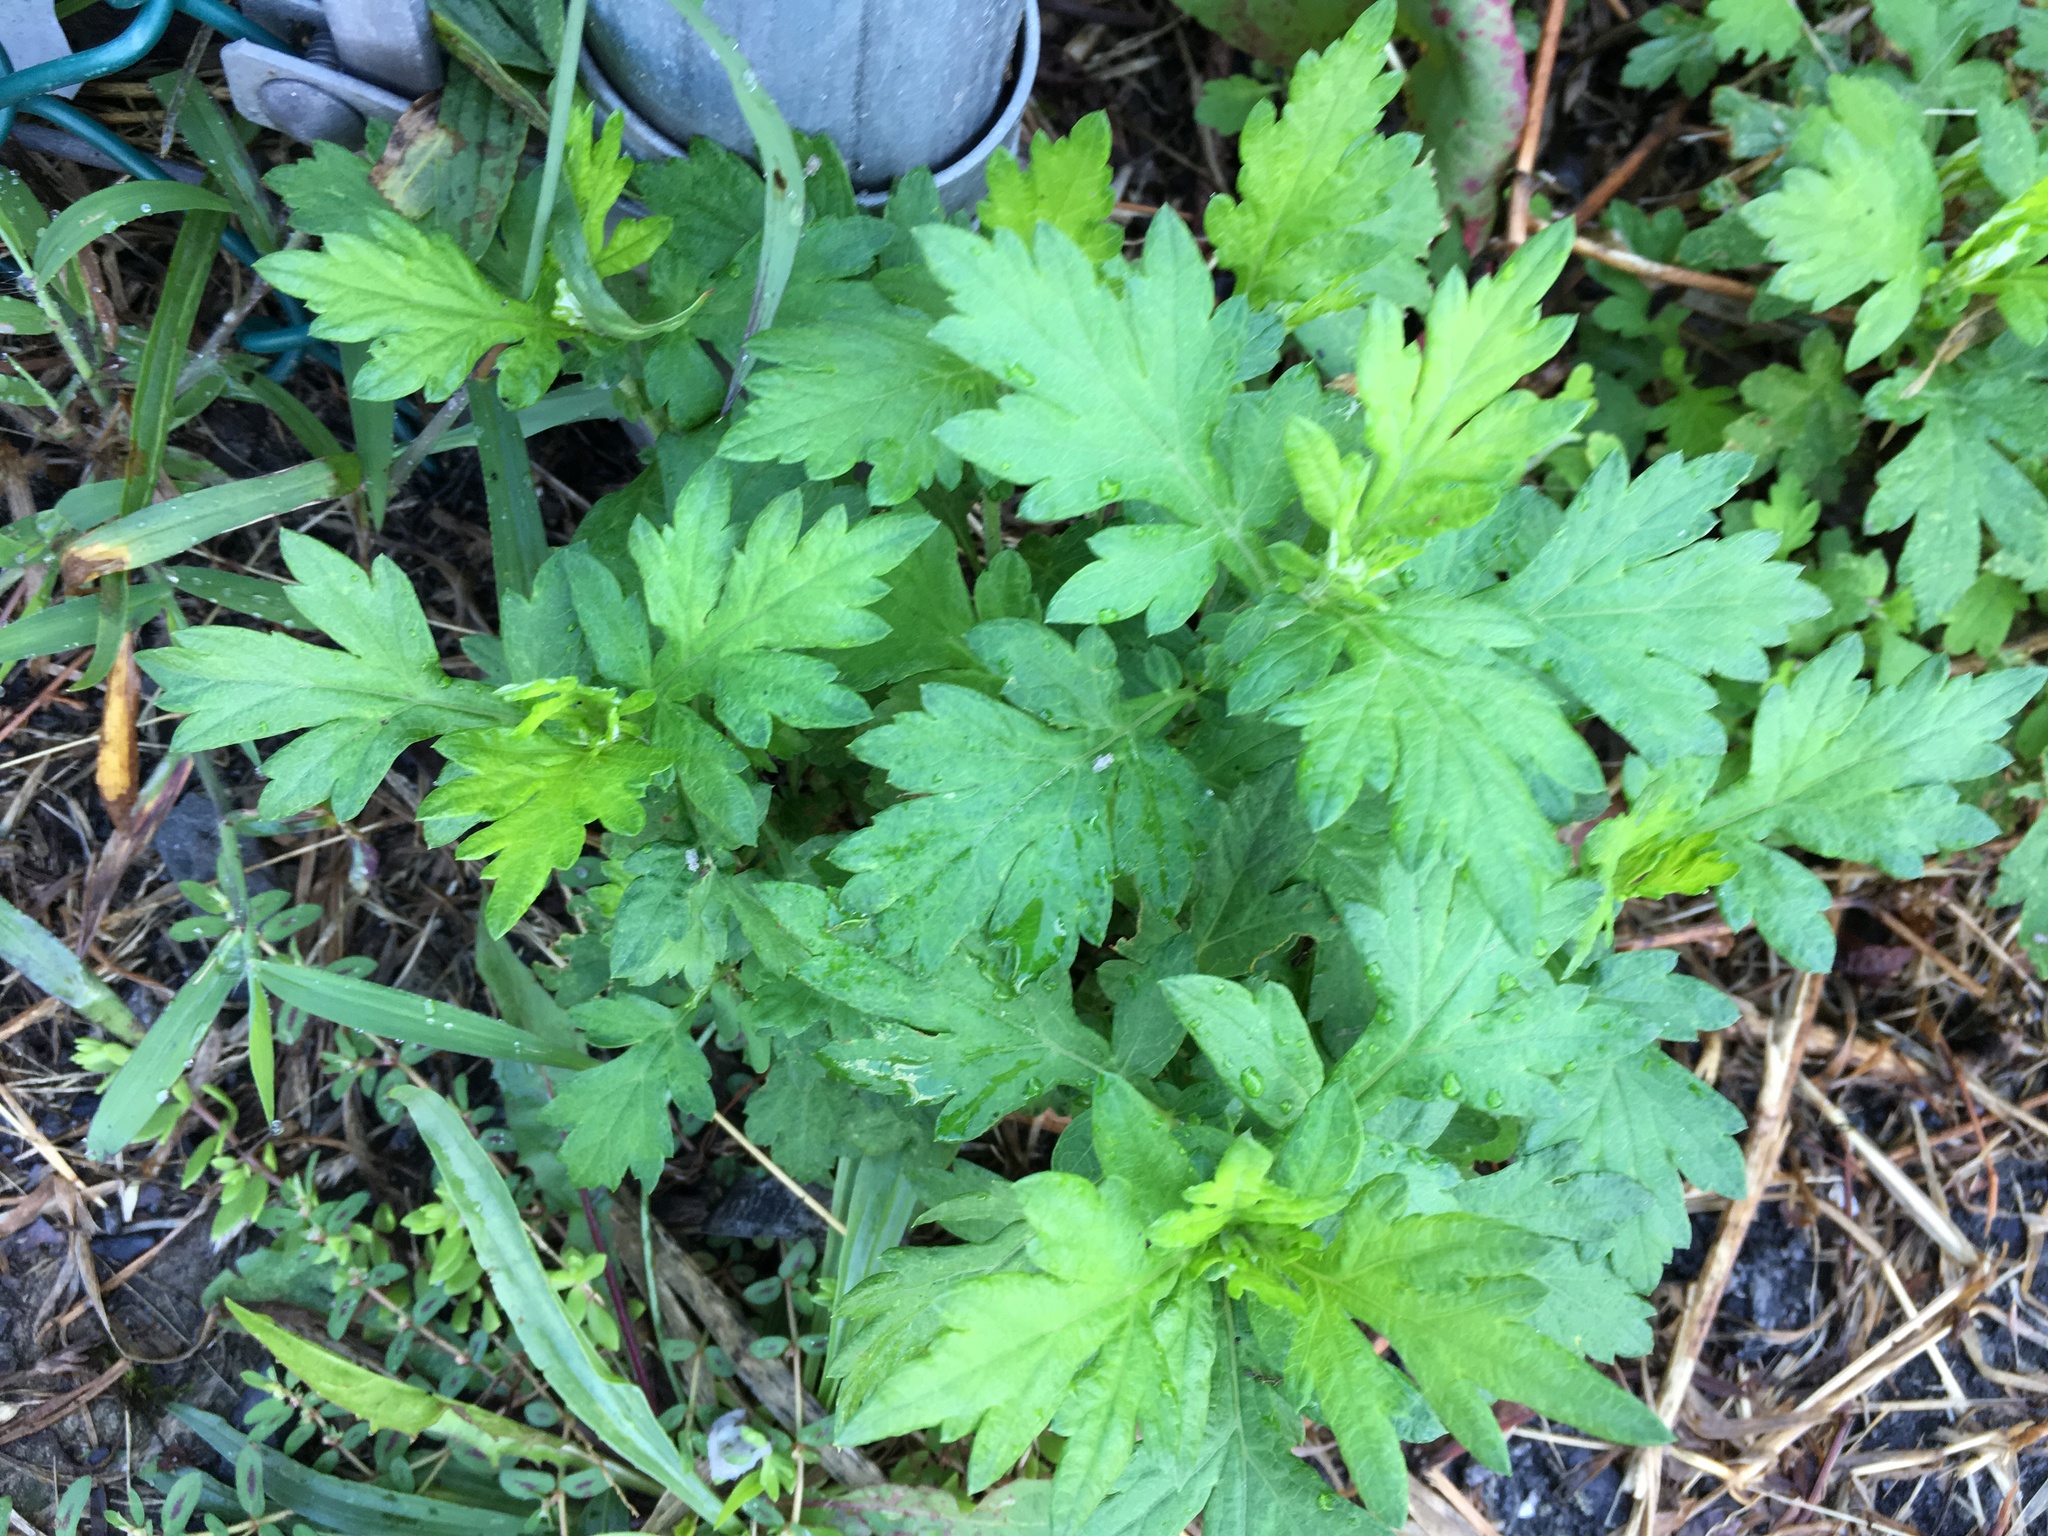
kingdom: Plantae
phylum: Tracheophyta
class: Magnoliopsida
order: Asterales
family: Asteraceae
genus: Artemisia
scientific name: Artemisia vulgaris
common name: Mugwort
